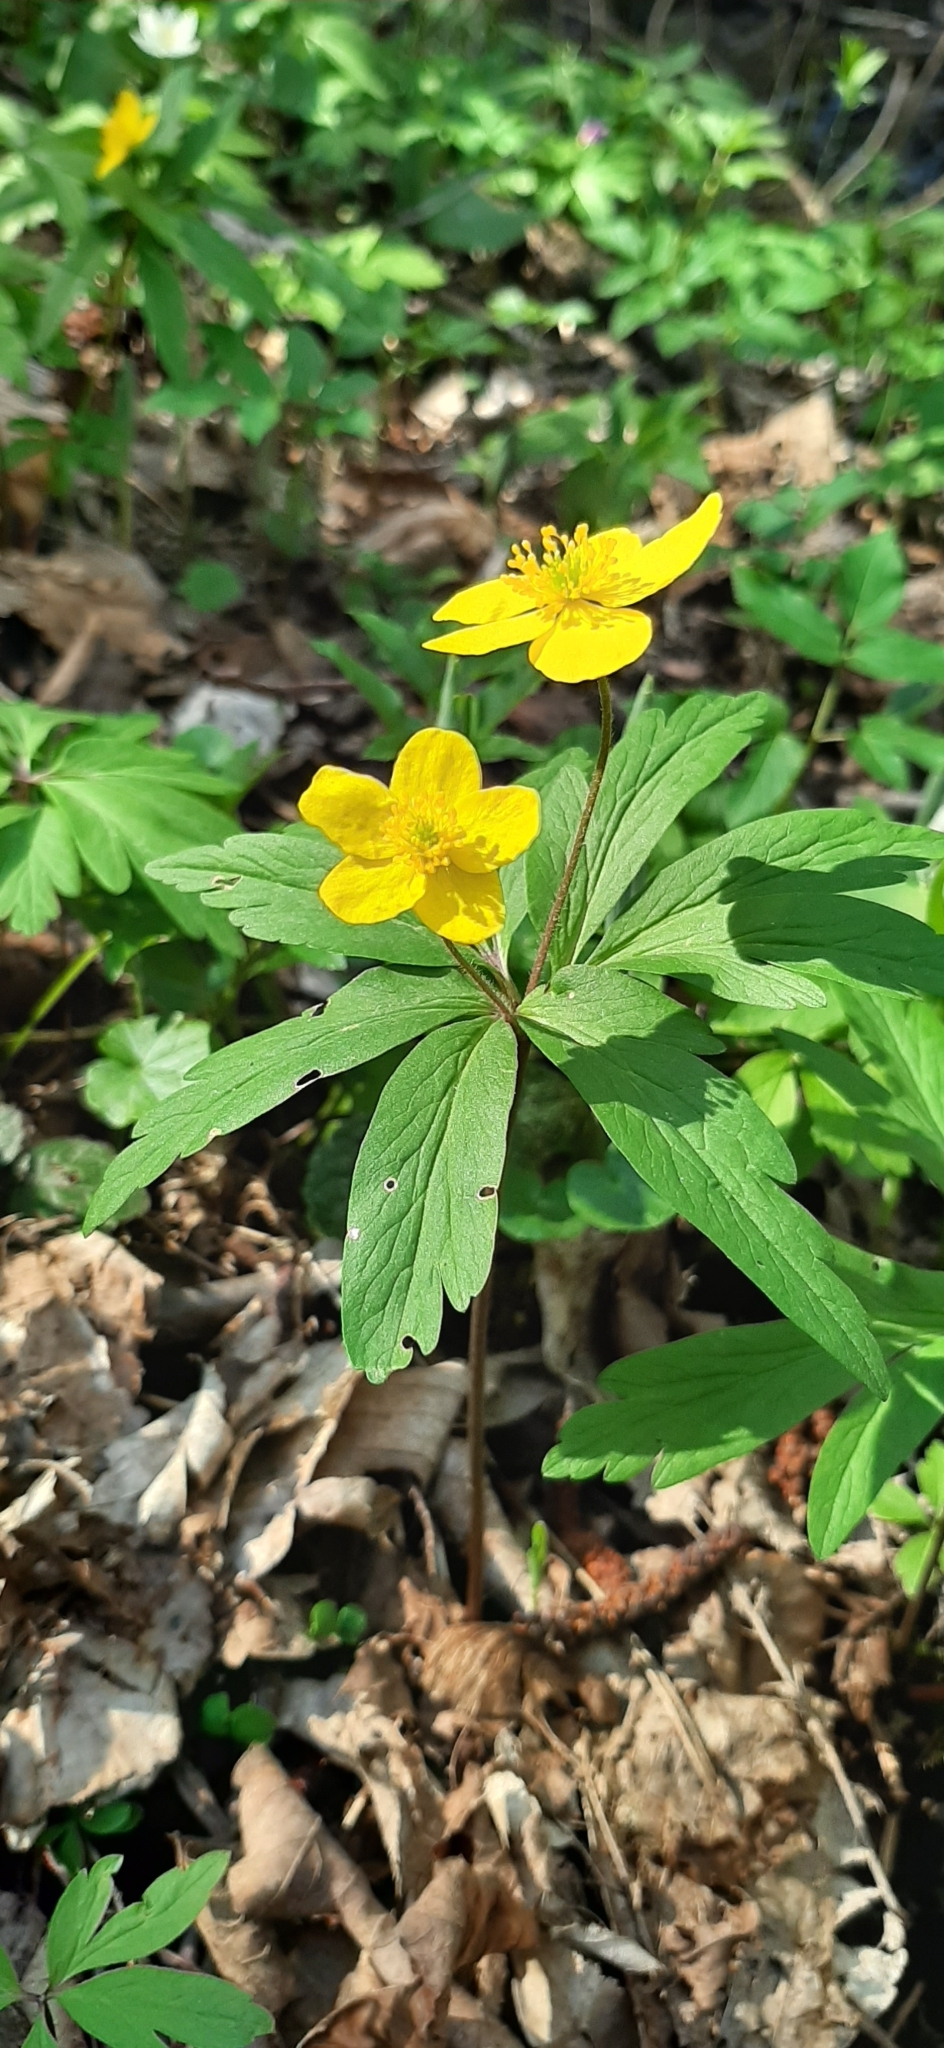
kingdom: Plantae
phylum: Tracheophyta
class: Magnoliopsida
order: Ranunculales
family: Ranunculaceae
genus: Anemone
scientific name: Anemone ranunculoides
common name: Yellow anemone
